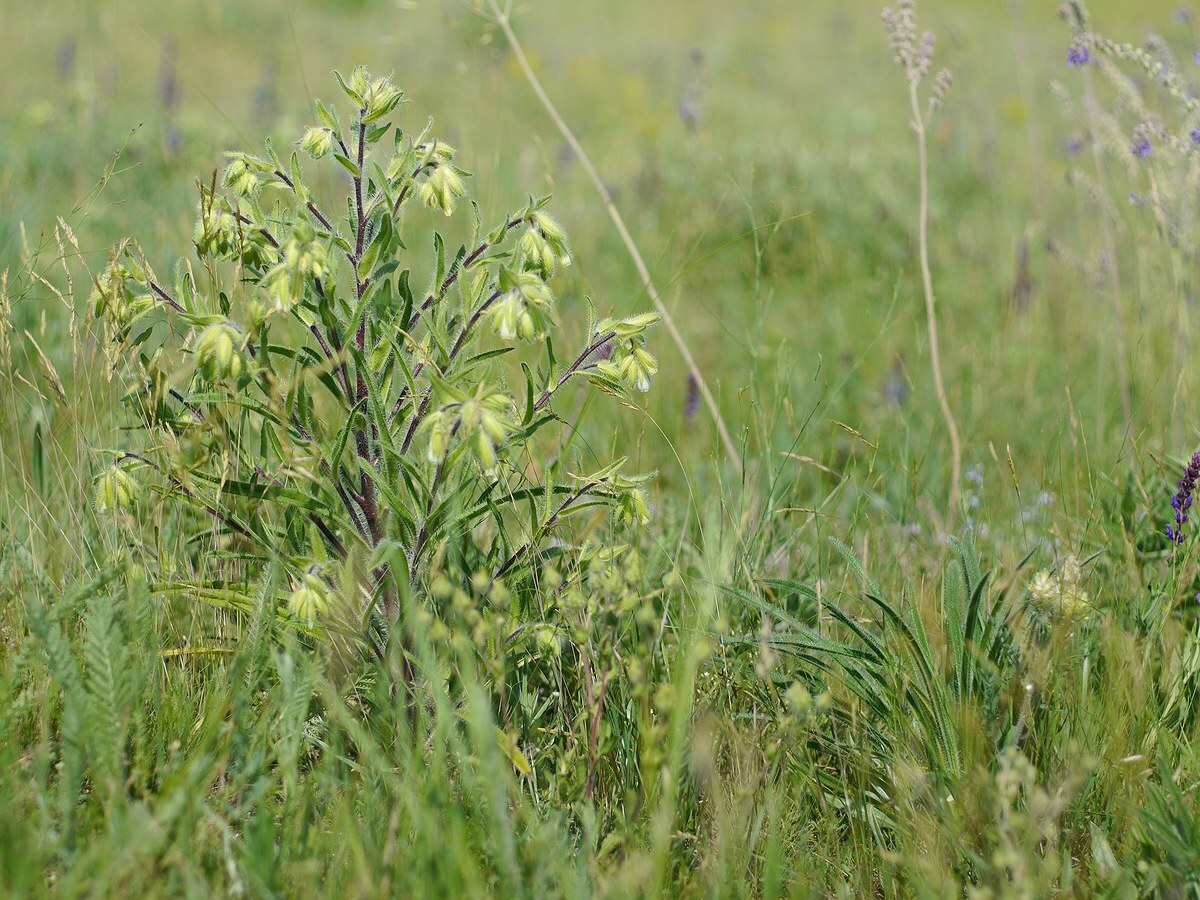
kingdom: Plantae
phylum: Tracheophyta
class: Magnoliopsida
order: Boraginales
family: Boraginaceae
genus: Onosma
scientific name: Onosma visianii
